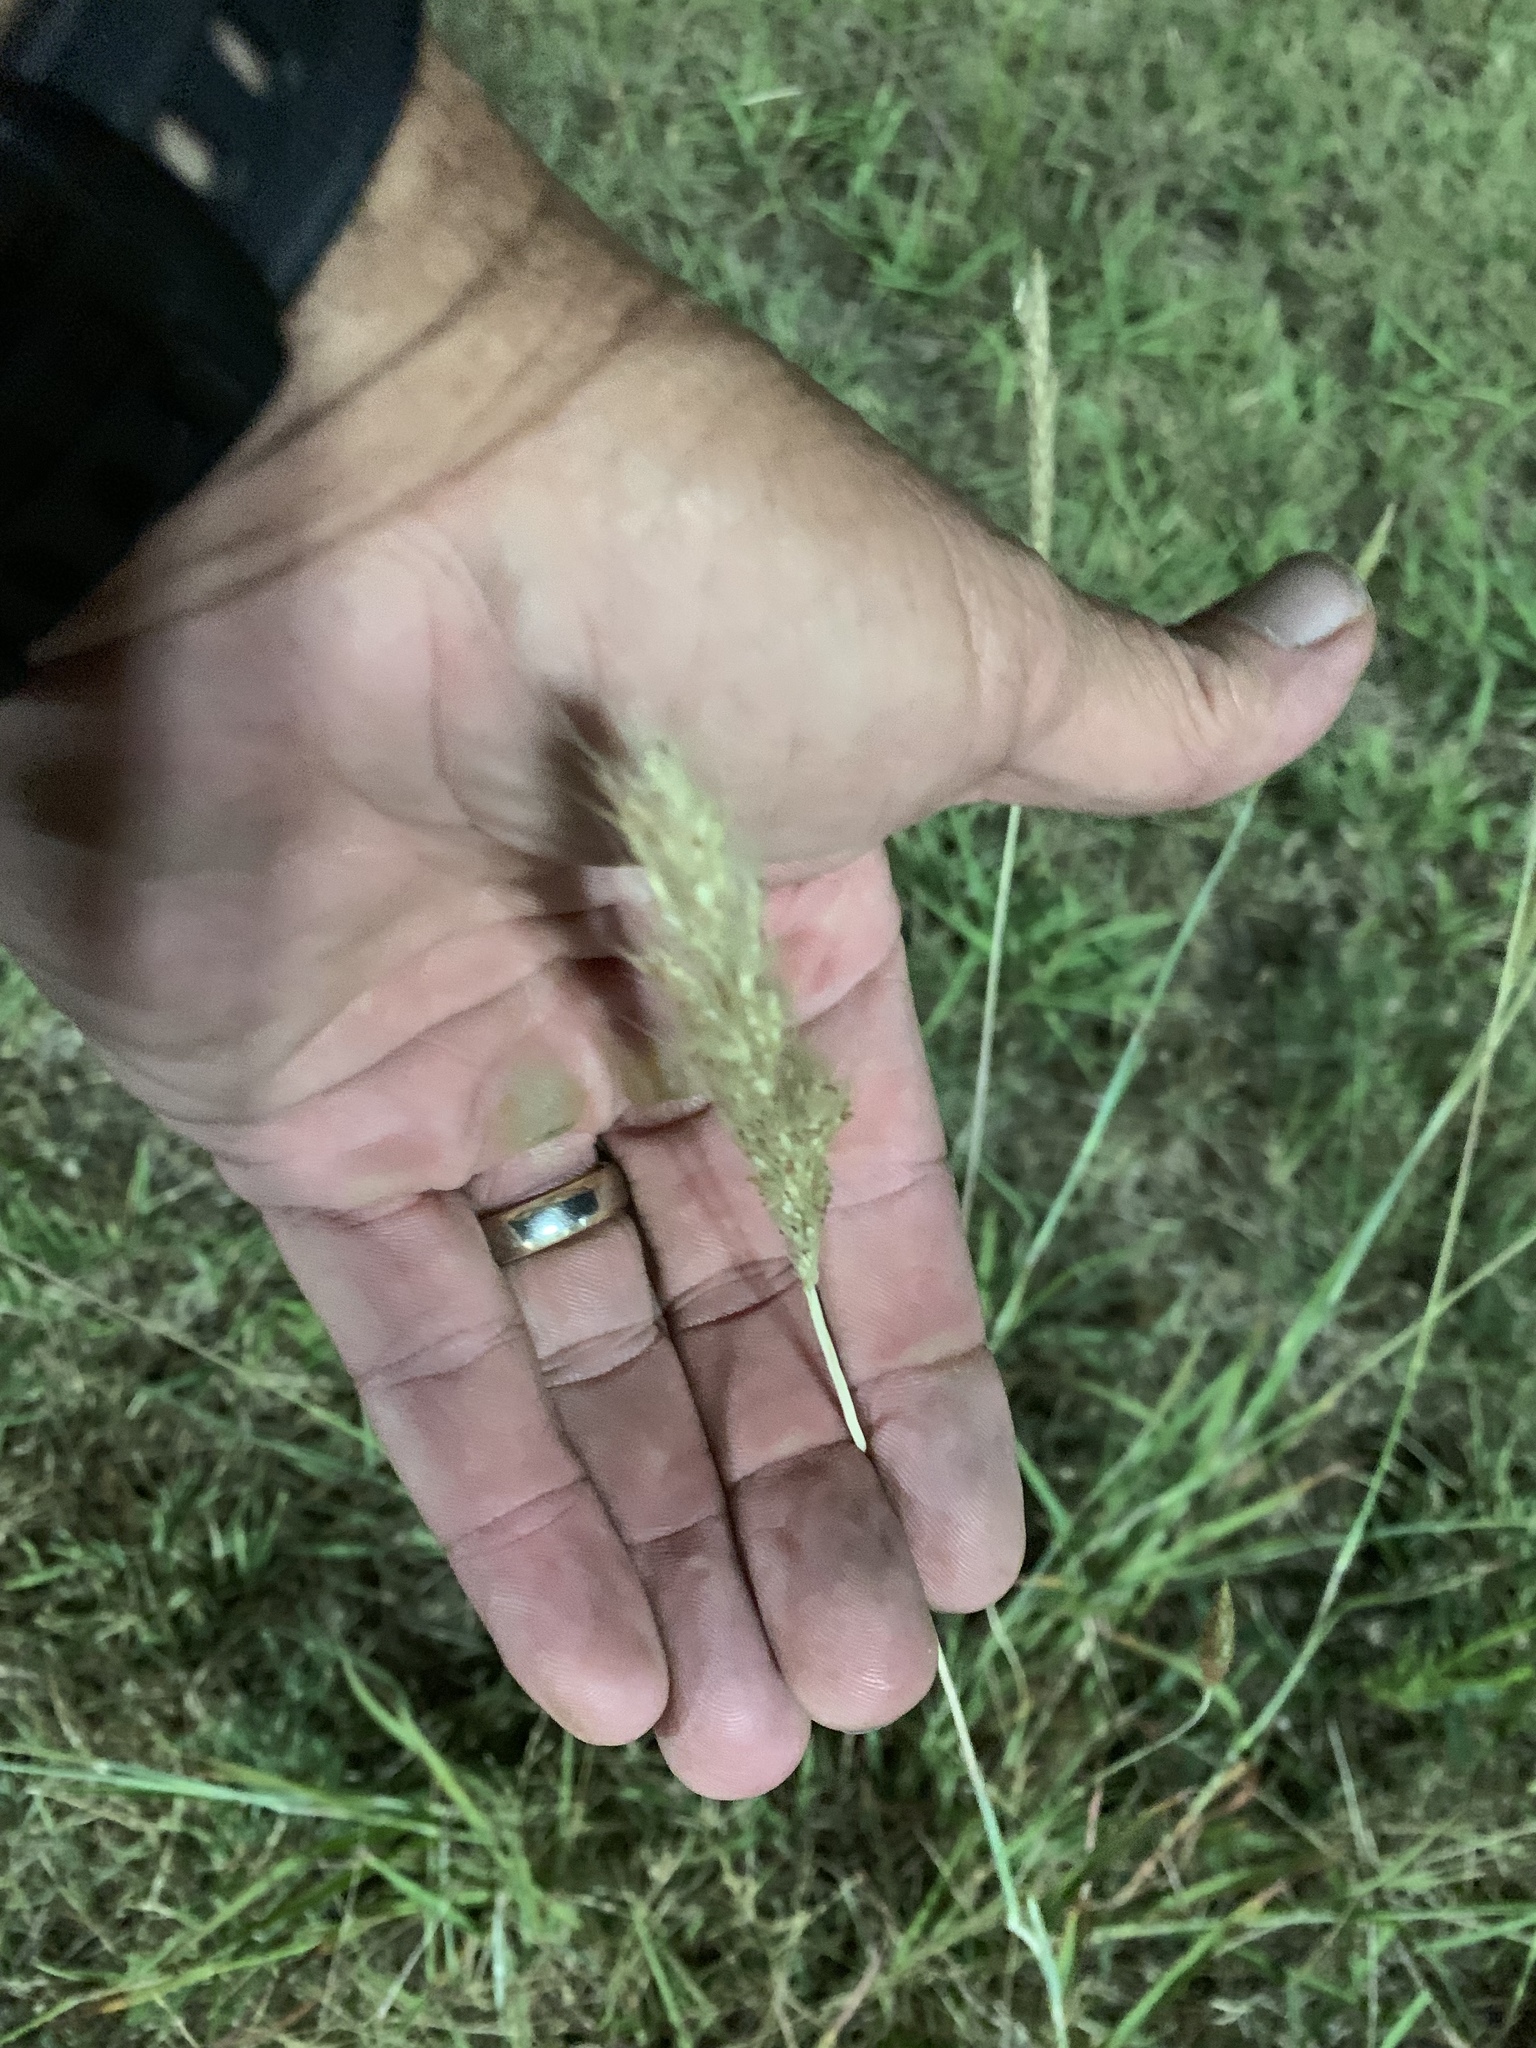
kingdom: Plantae
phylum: Tracheophyta
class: Liliopsida
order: Poales
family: Poaceae
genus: Bothriochloa
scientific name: Bothriochloa torreyana
